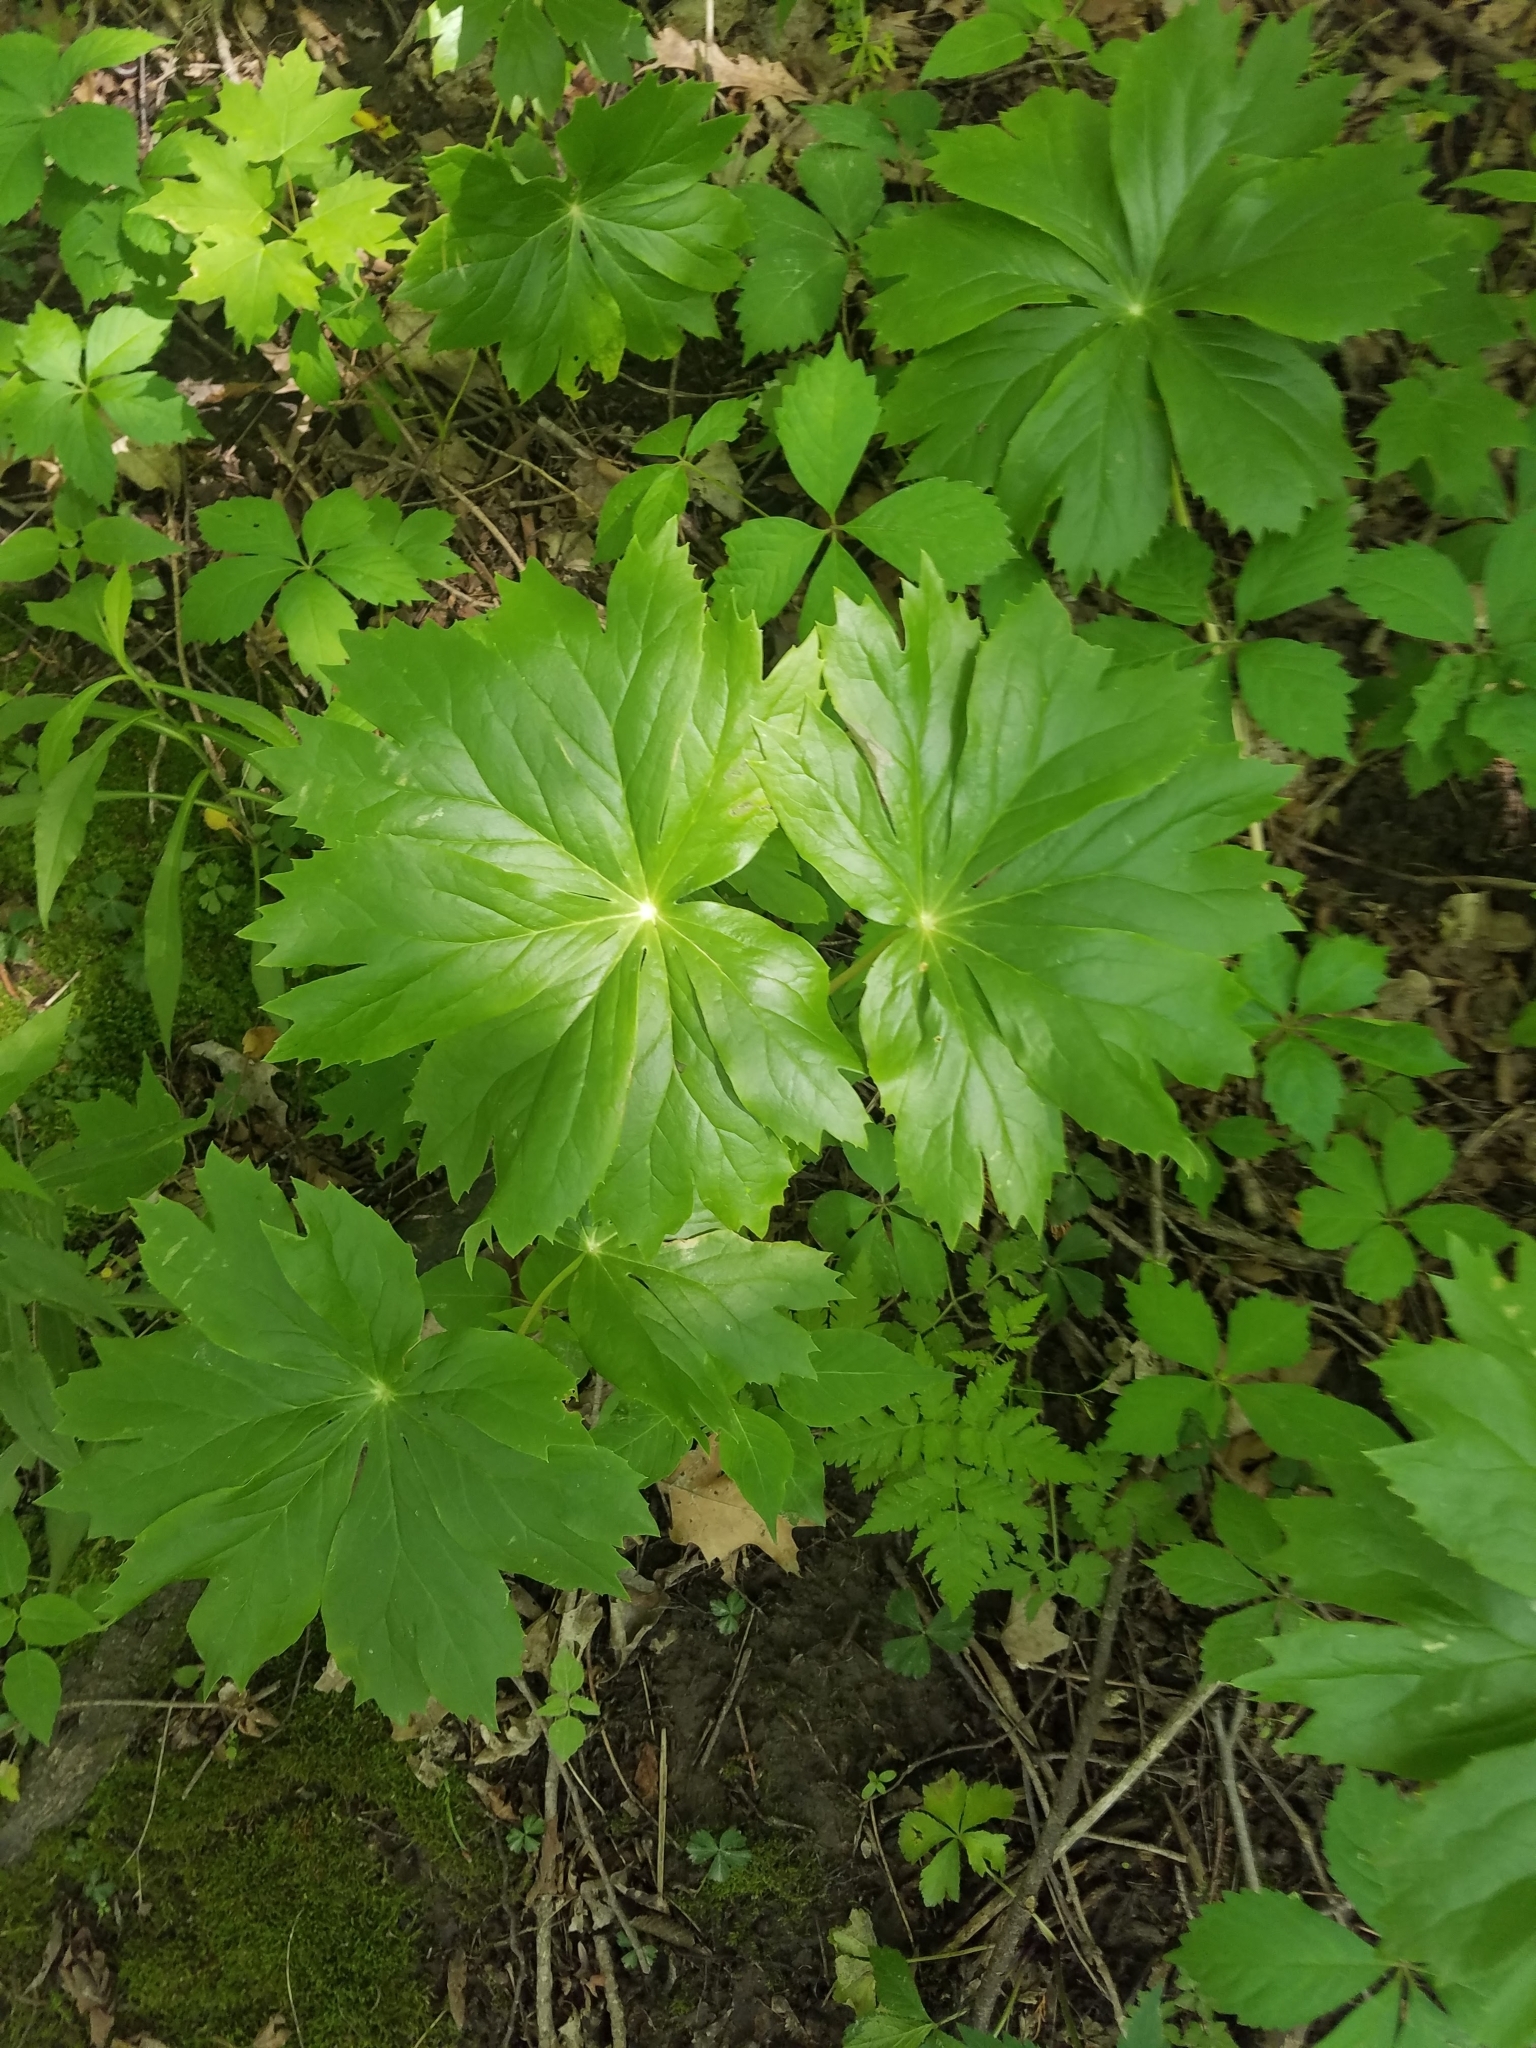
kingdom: Plantae
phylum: Tracheophyta
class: Magnoliopsida
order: Ranunculales
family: Berberidaceae
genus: Podophyllum
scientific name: Podophyllum peltatum
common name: Wild mandrake
